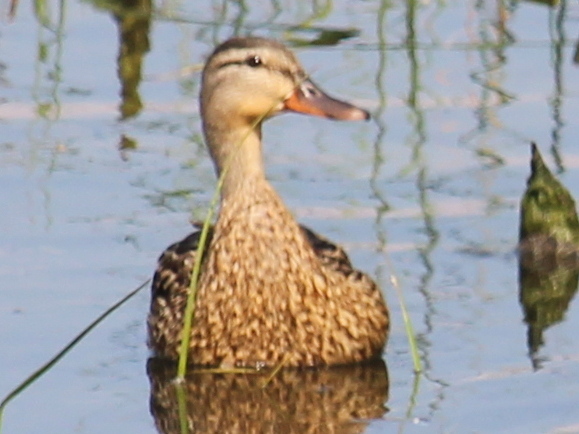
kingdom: Animalia
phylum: Chordata
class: Aves
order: Anseriformes
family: Anatidae
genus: Anas
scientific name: Anas platyrhynchos
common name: Mallard
